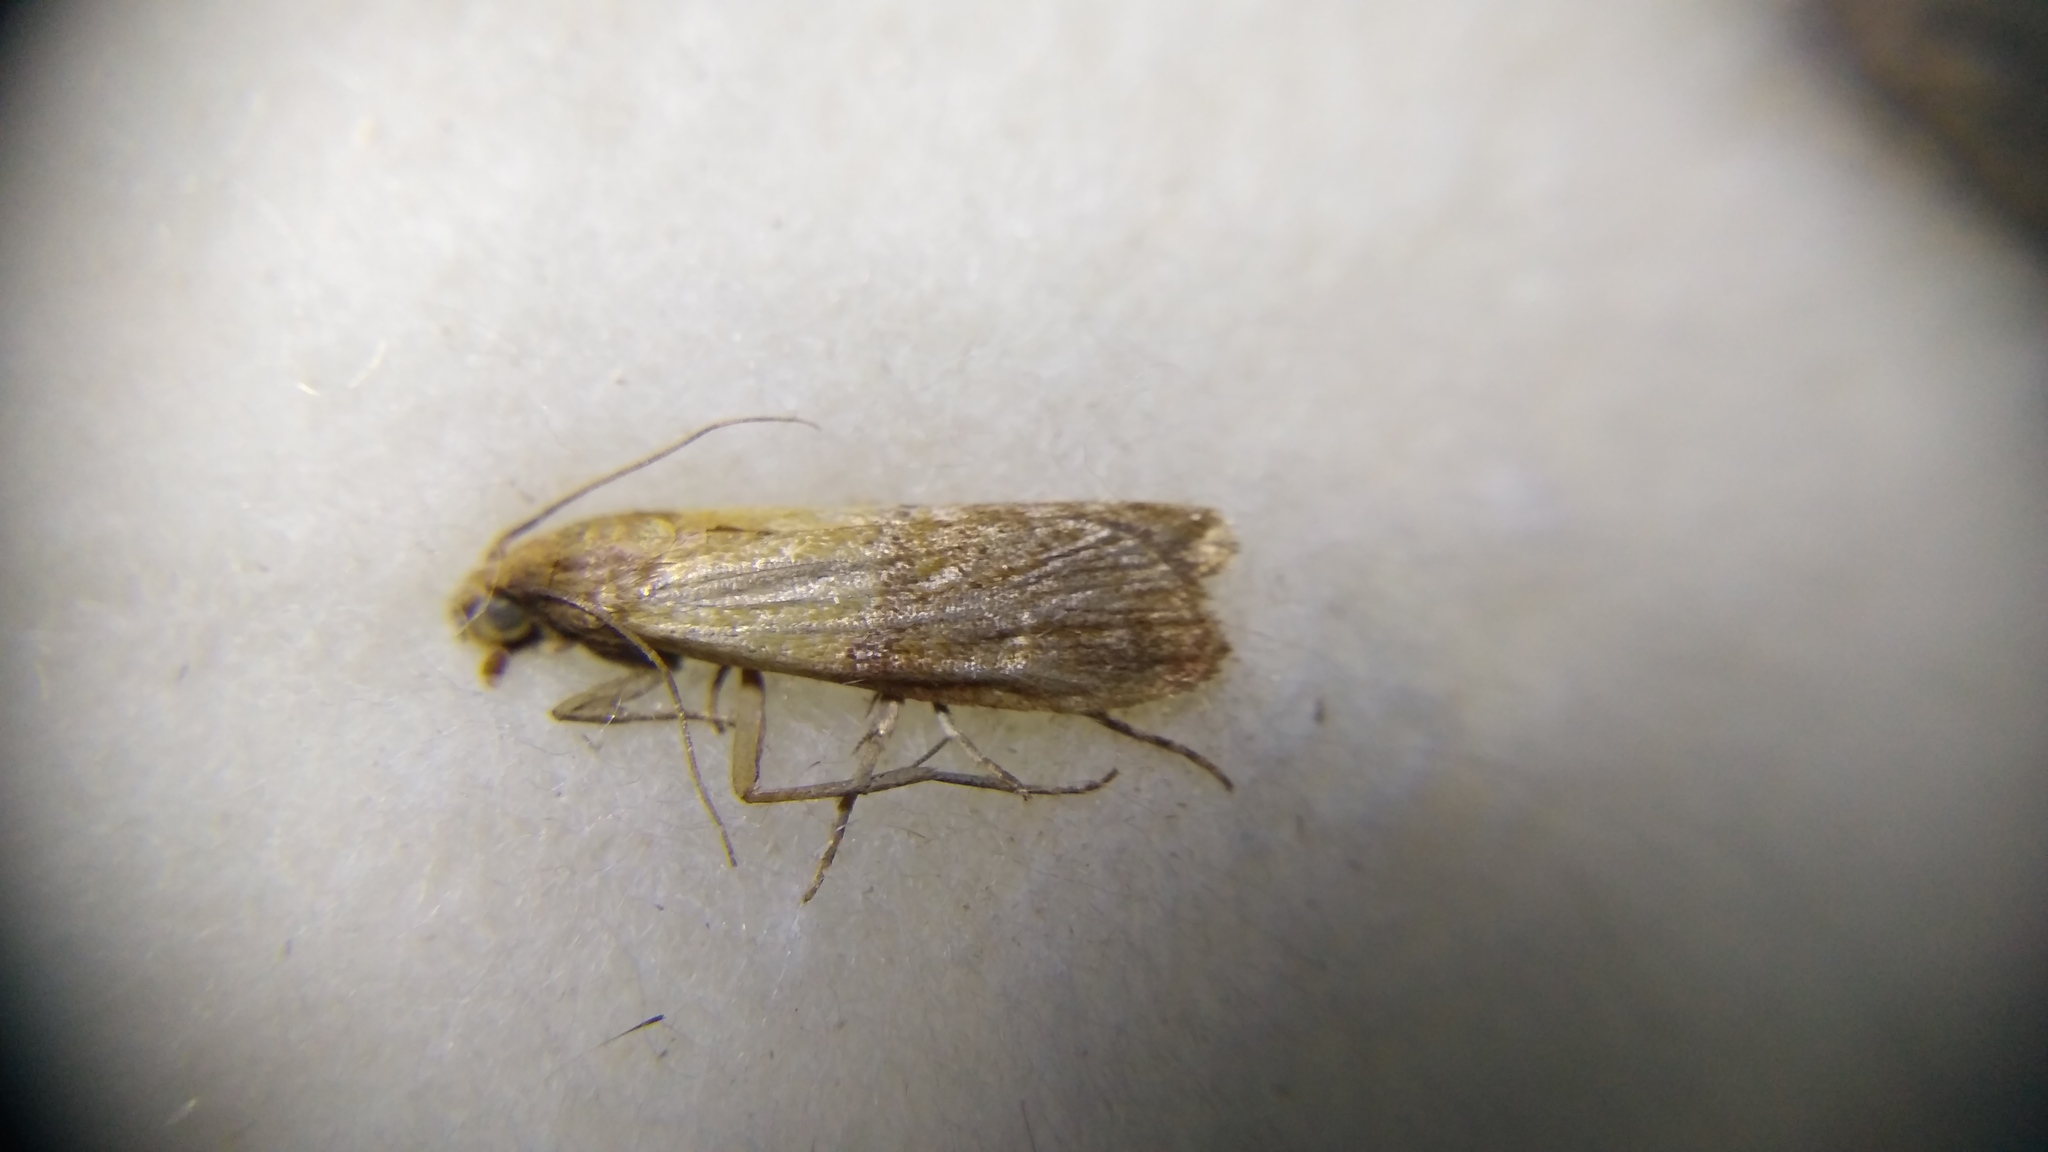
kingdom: Animalia
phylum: Arthropoda
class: Insecta
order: Lepidoptera
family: Pyralidae
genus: Plodia
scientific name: Plodia interpunctella
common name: Indian meal moth
